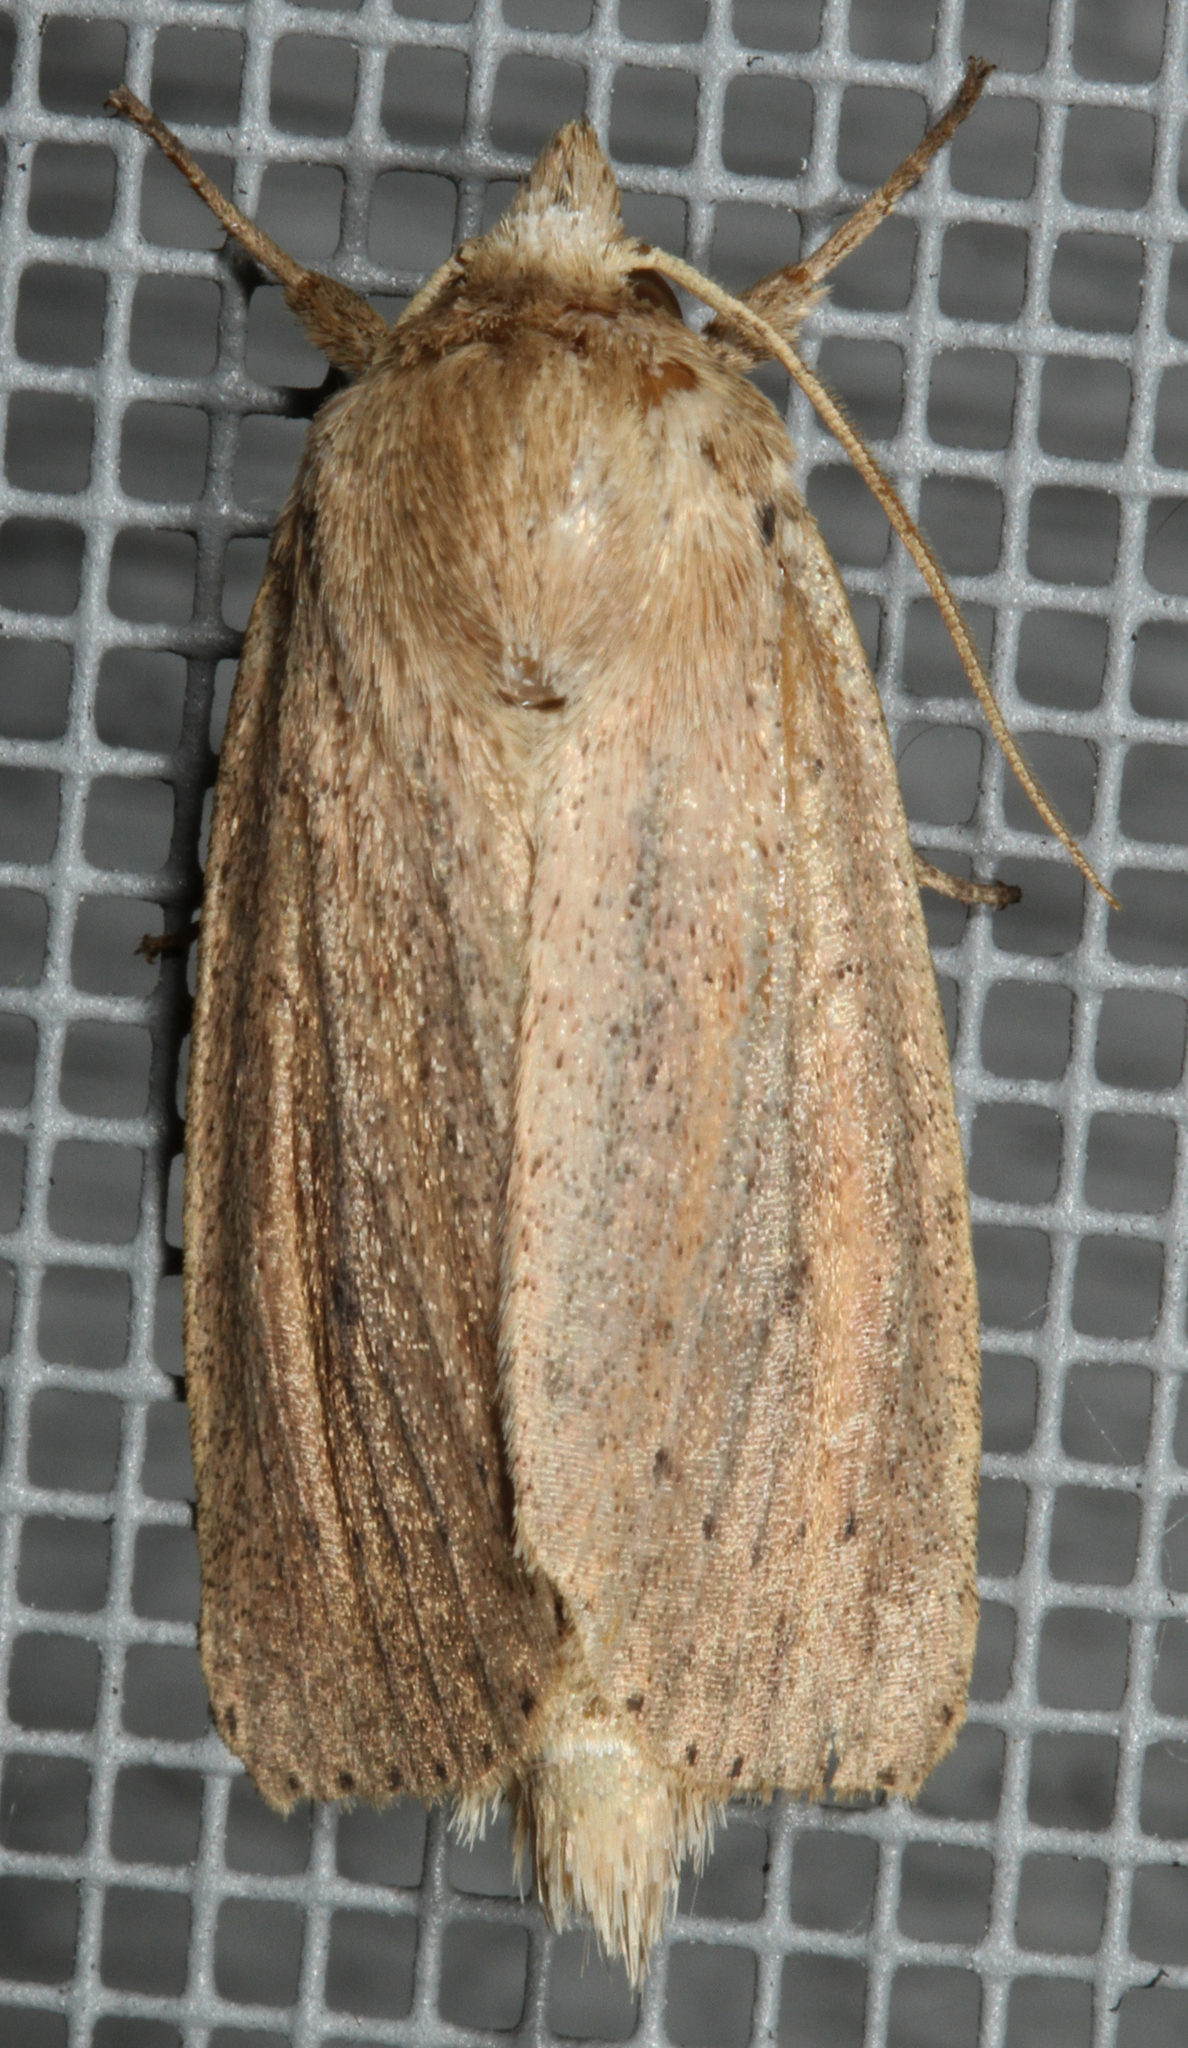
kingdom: Animalia
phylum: Arthropoda
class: Insecta
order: Lepidoptera
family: Noctuidae
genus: Globia
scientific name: Globia oblonga
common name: Oblong sedge borer moth
